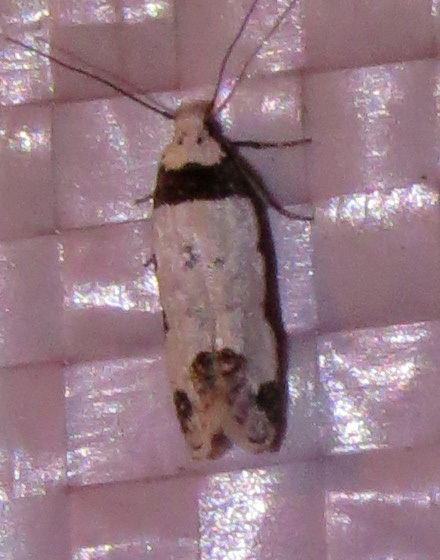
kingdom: Animalia
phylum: Arthropoda
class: Insecta
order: Lepidoptera
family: Gelechiidae
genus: Rifseria
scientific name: Rifseria fuscotaeniaella
